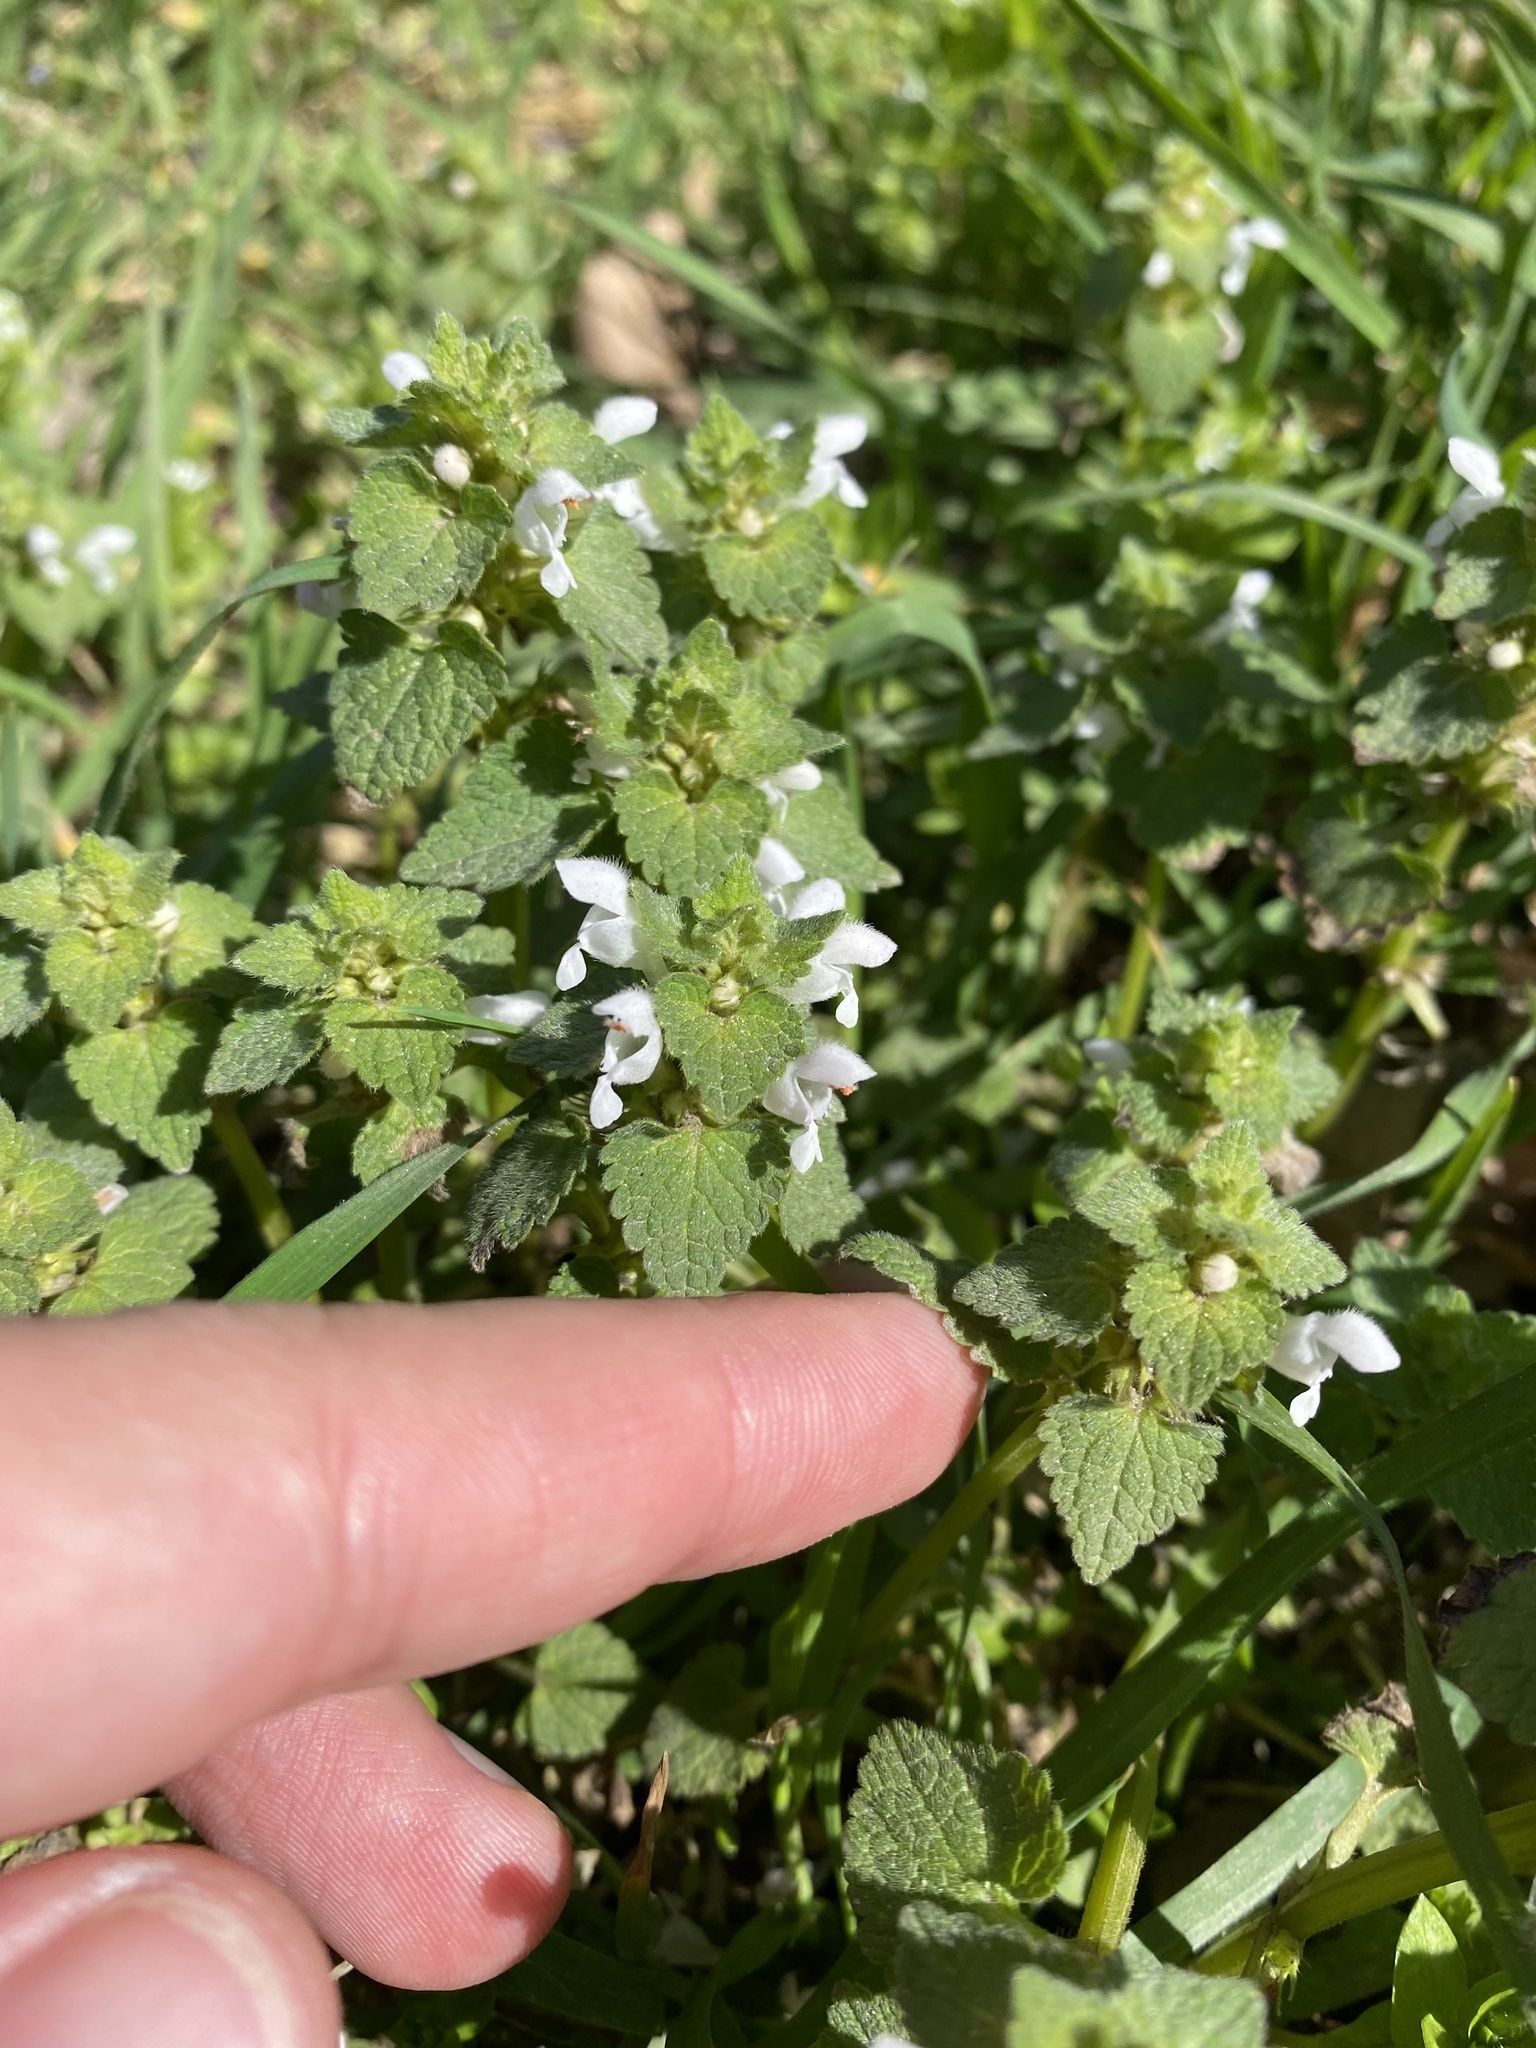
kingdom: Plantae
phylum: Tracheophyta
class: Magnoliopsida
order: Lamiales
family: Lamiaceae
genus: Lamium
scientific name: Lamium purpureum
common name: Red dead-nettle
